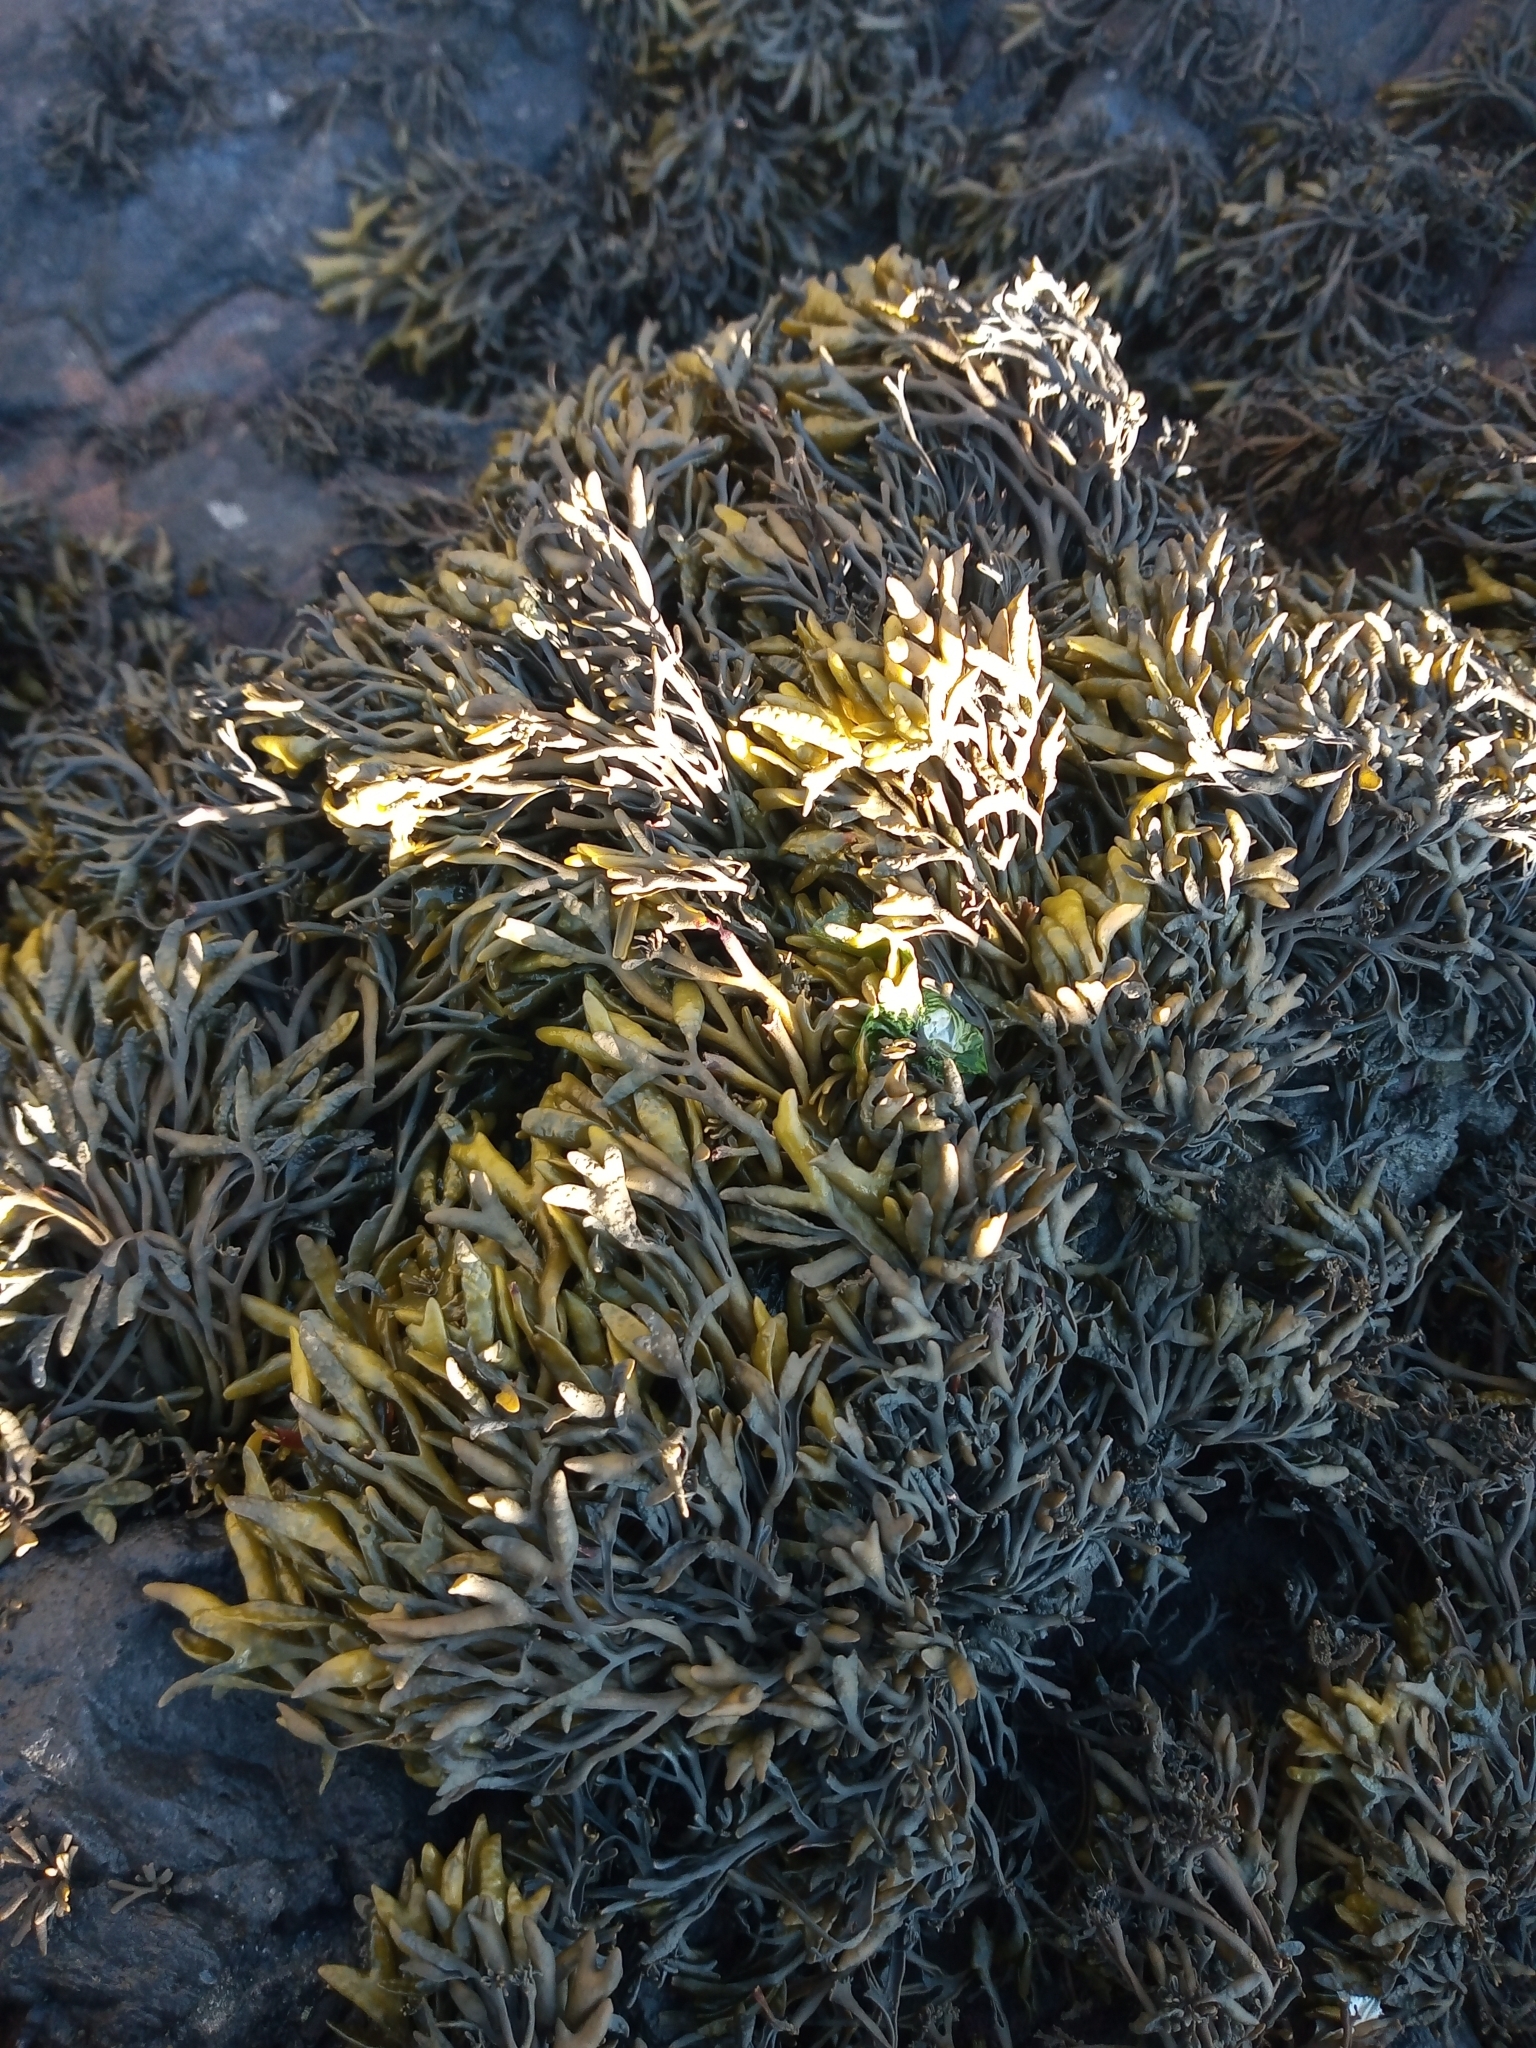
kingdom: Chromista
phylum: Ochrophyta
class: Phaeophyceae
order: Fucales
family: Fucaceae
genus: Pelvetia
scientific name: Pelvetia canaliculata
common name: Channelled wrack
